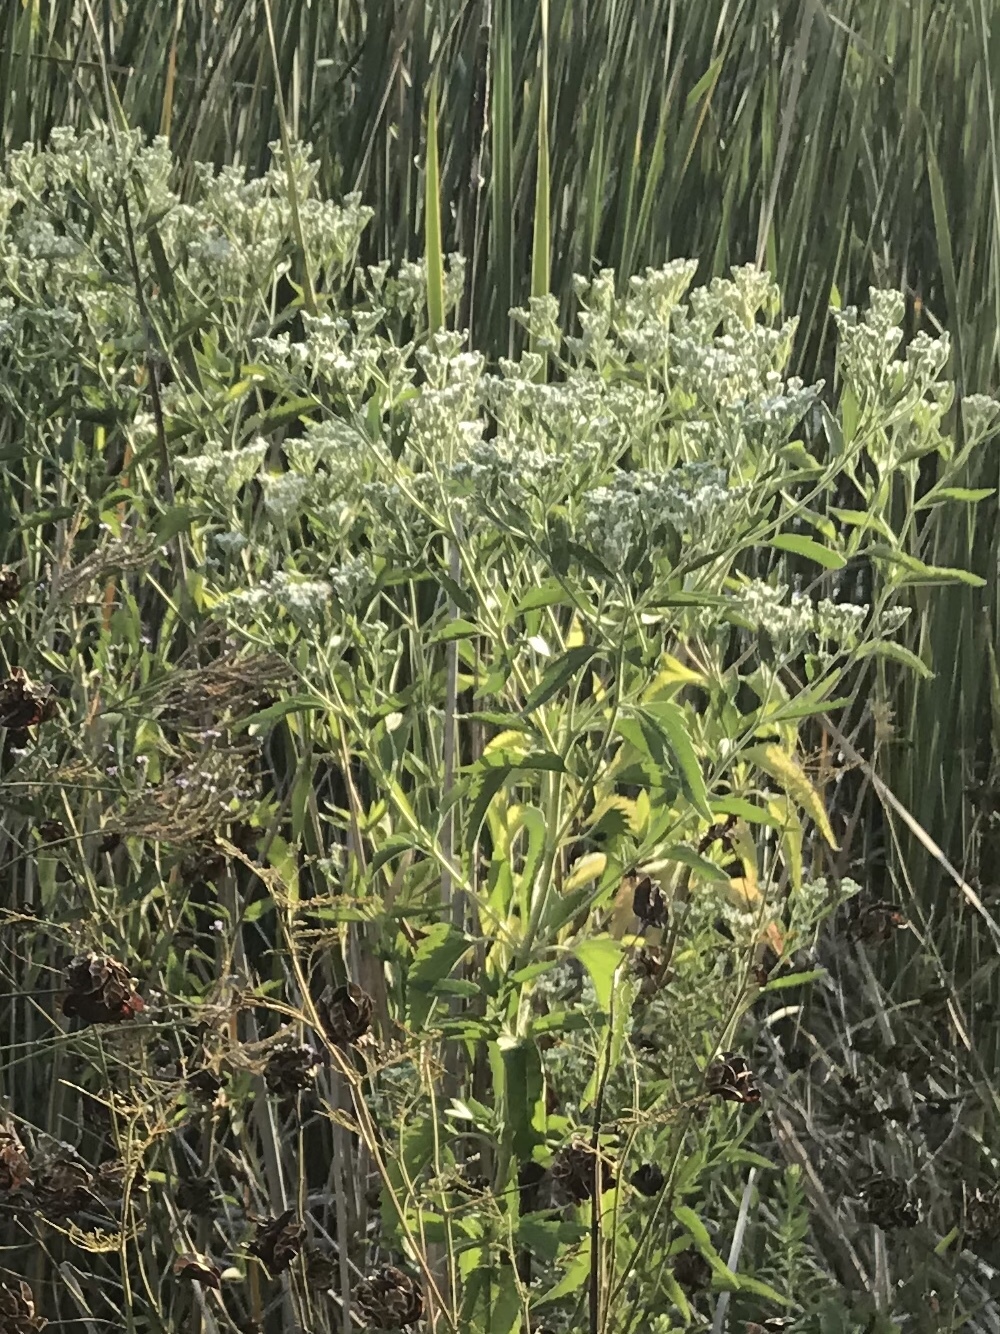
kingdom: Plantae
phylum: Tracheophyta
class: Magnoliopsida
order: Asterales
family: Asteraceae
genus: Eupatorium
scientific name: Eupatorium serotinum
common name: Late boneset
